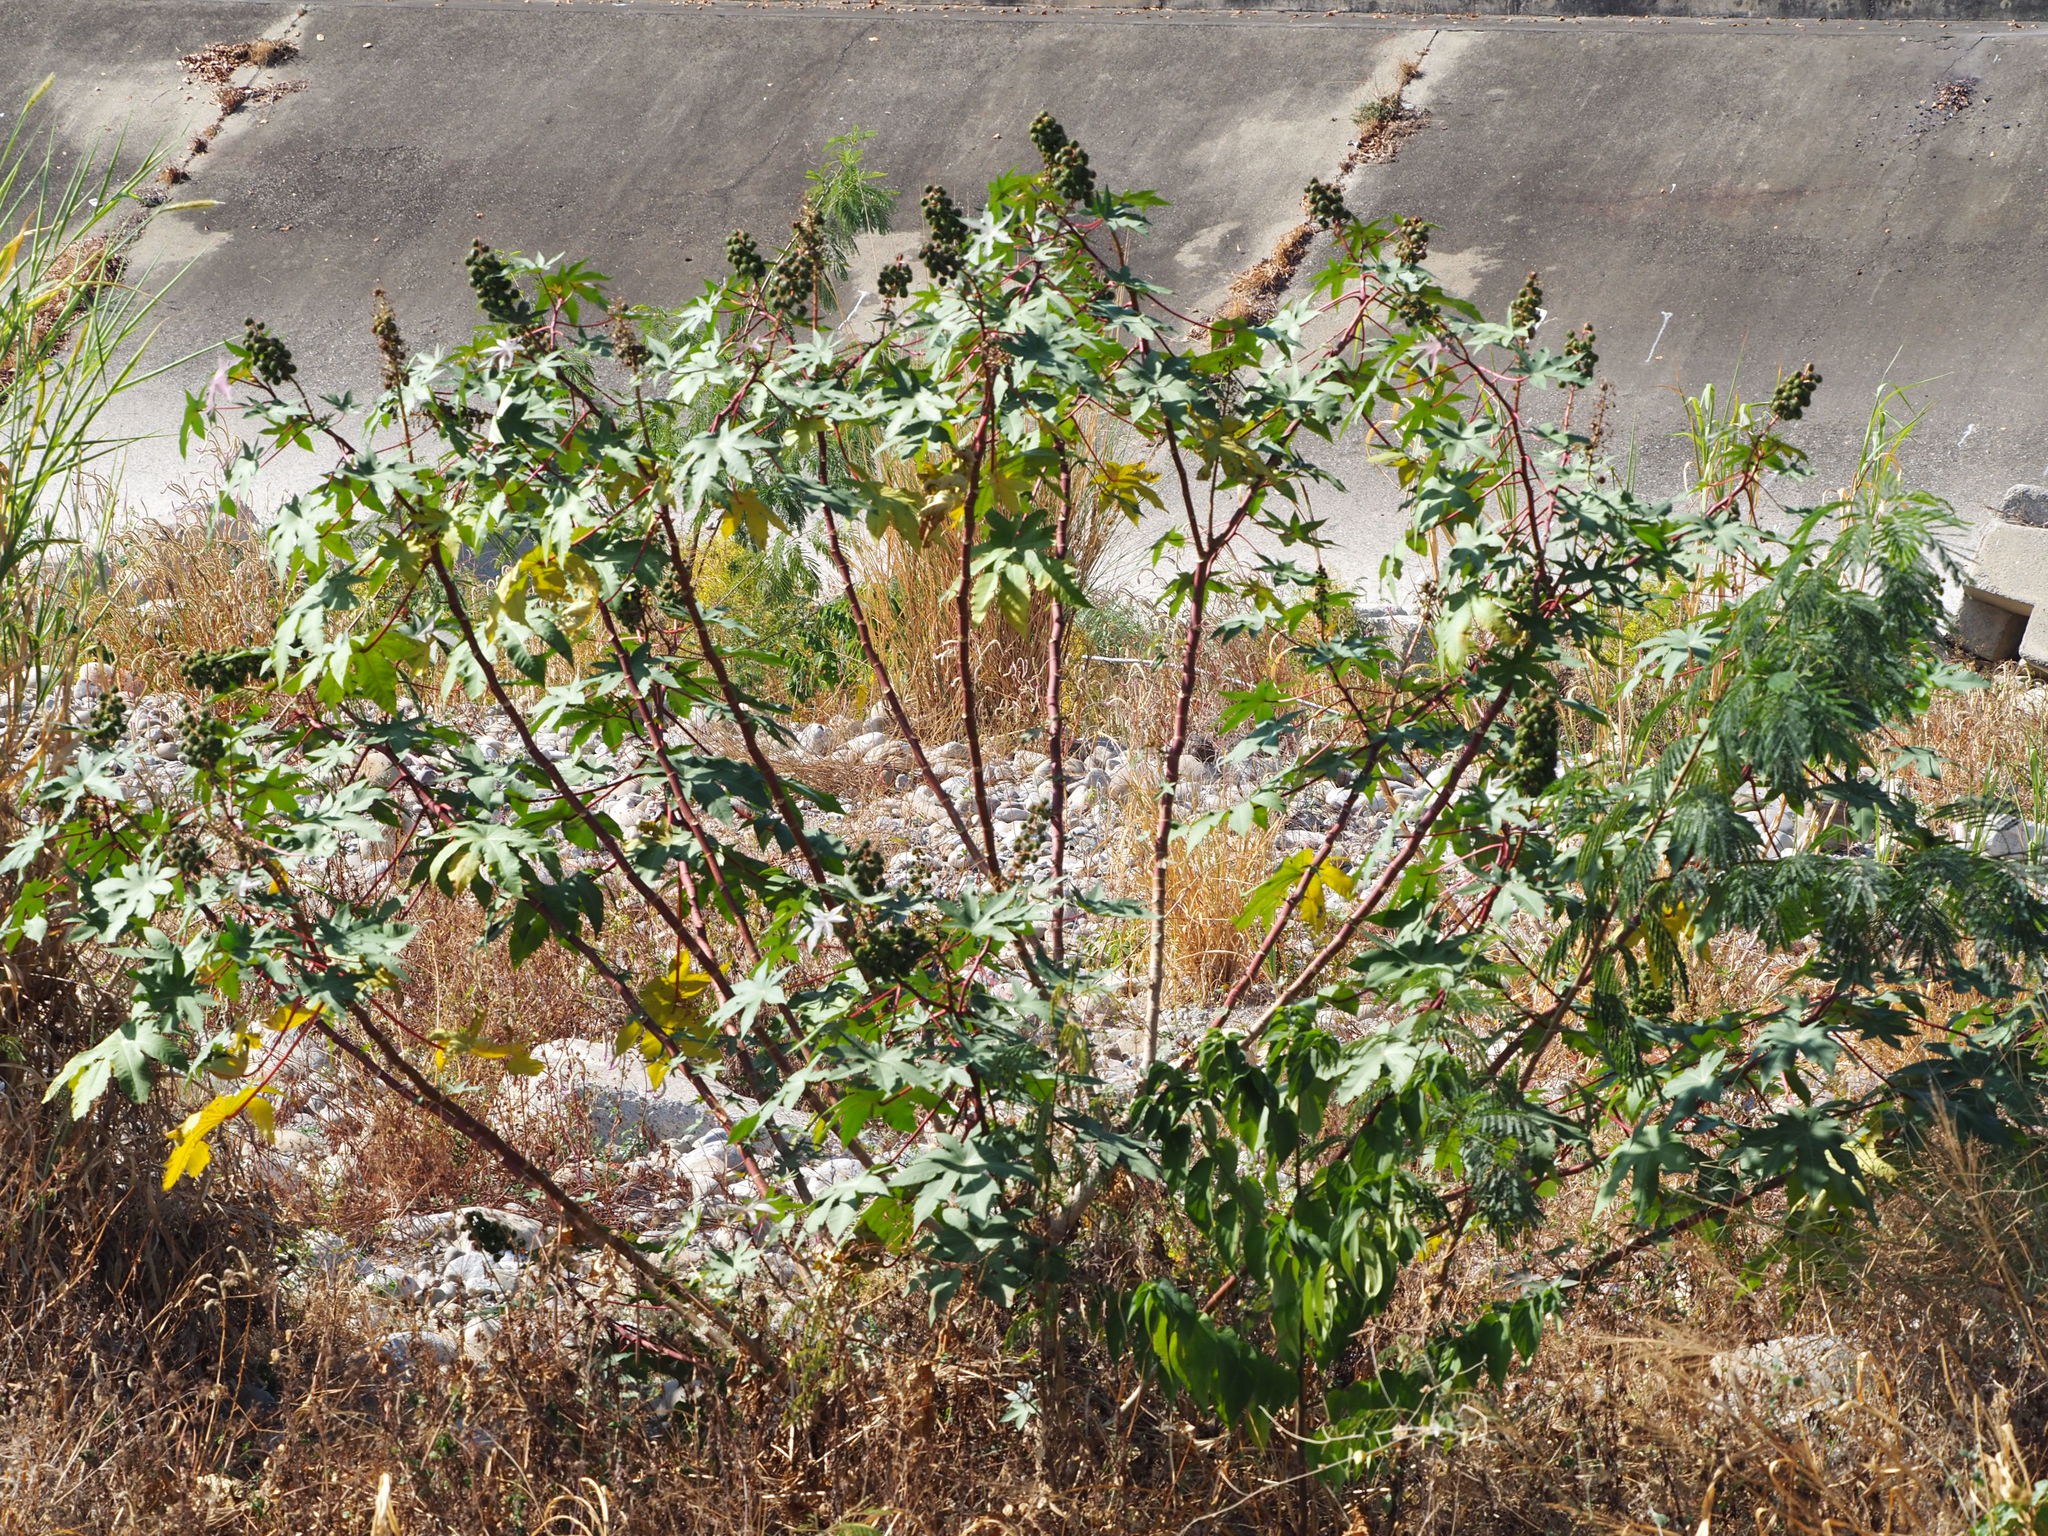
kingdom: Plantae
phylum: Tracheophyta
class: Magnoliopsida
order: Malpighiales
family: Euphorbiaceae
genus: Ricinus
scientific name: Ricinus communis
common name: Castor-oil-plant
